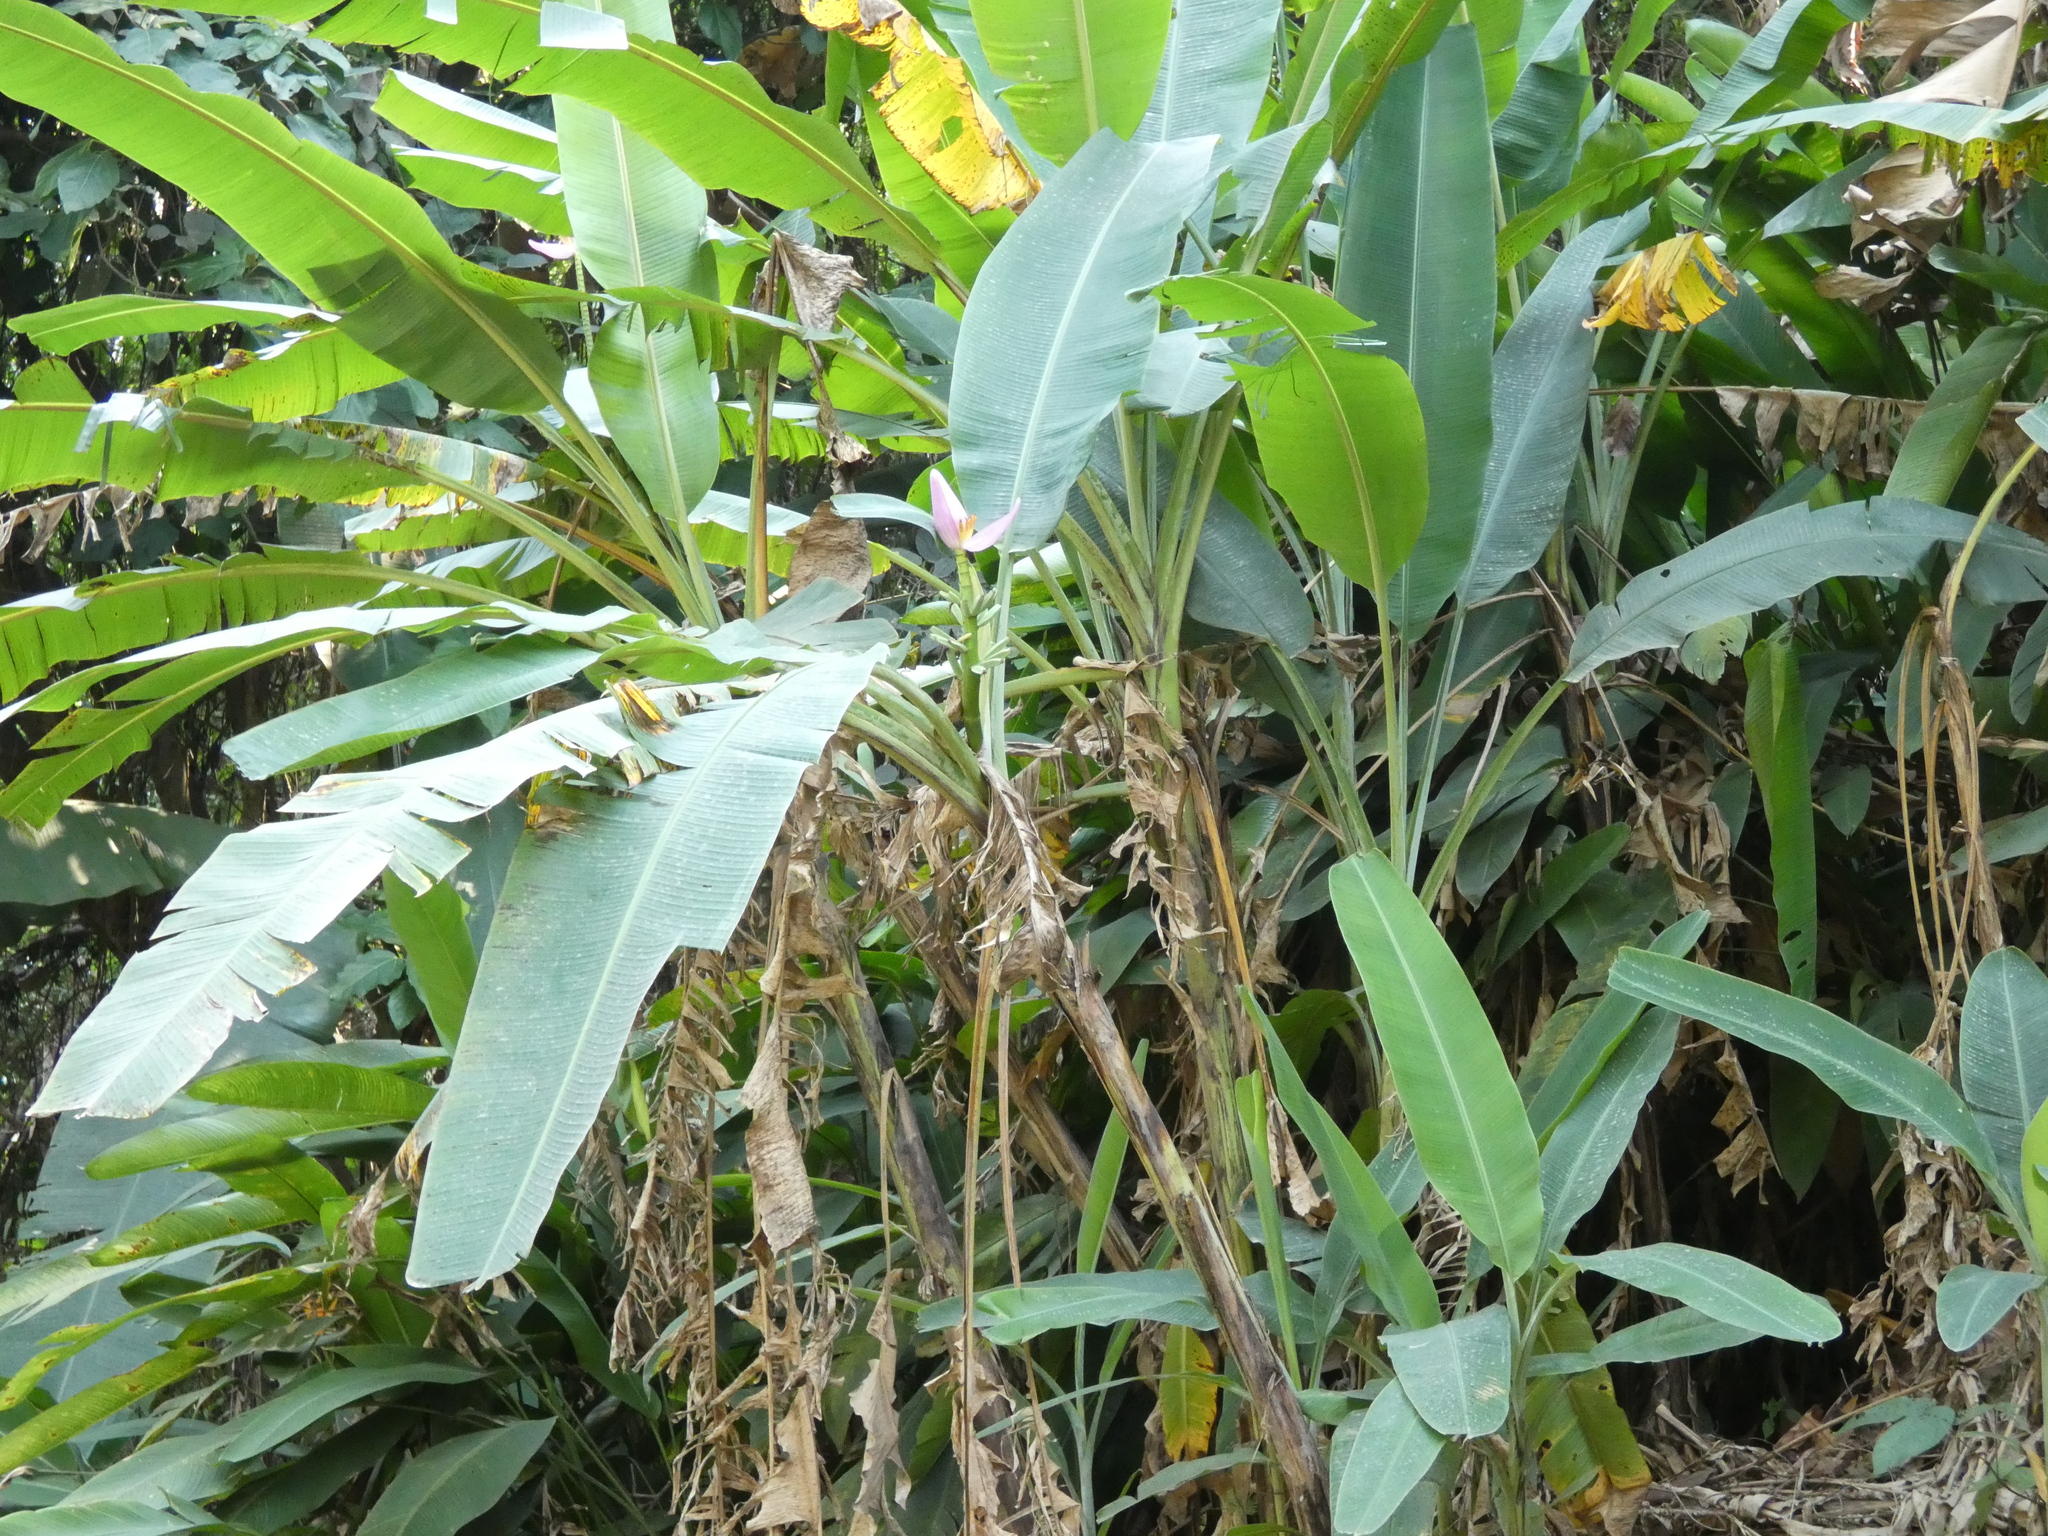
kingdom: Plantae
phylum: Tracheophyta
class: Liliopsida
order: Zingiberales
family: Musaceae
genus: Musa
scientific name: Musa ornata
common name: Flowering banana
